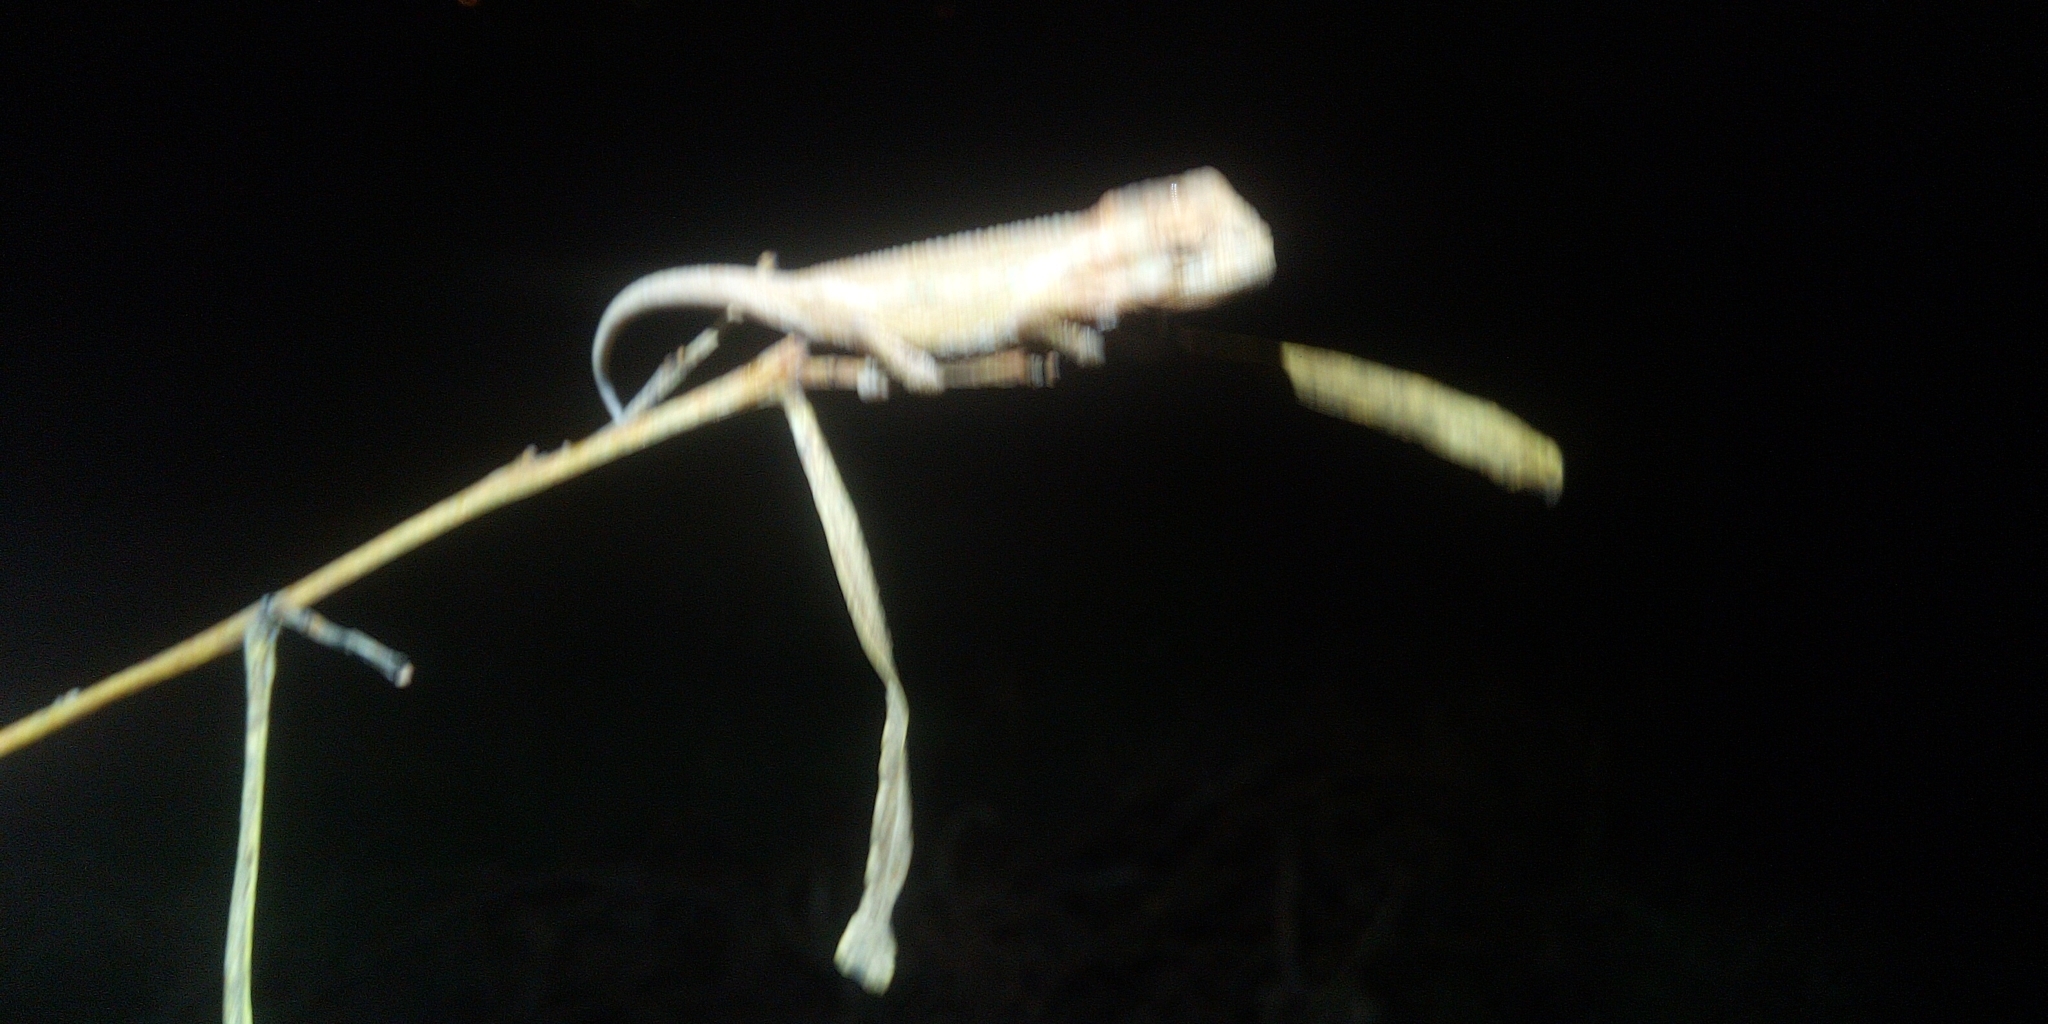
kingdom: Animalia
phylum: Chordata
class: Squamata
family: Chamaeleonidae
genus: Bradypodion
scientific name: Bradypodion pumilum
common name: Cape dwarf chameleon
